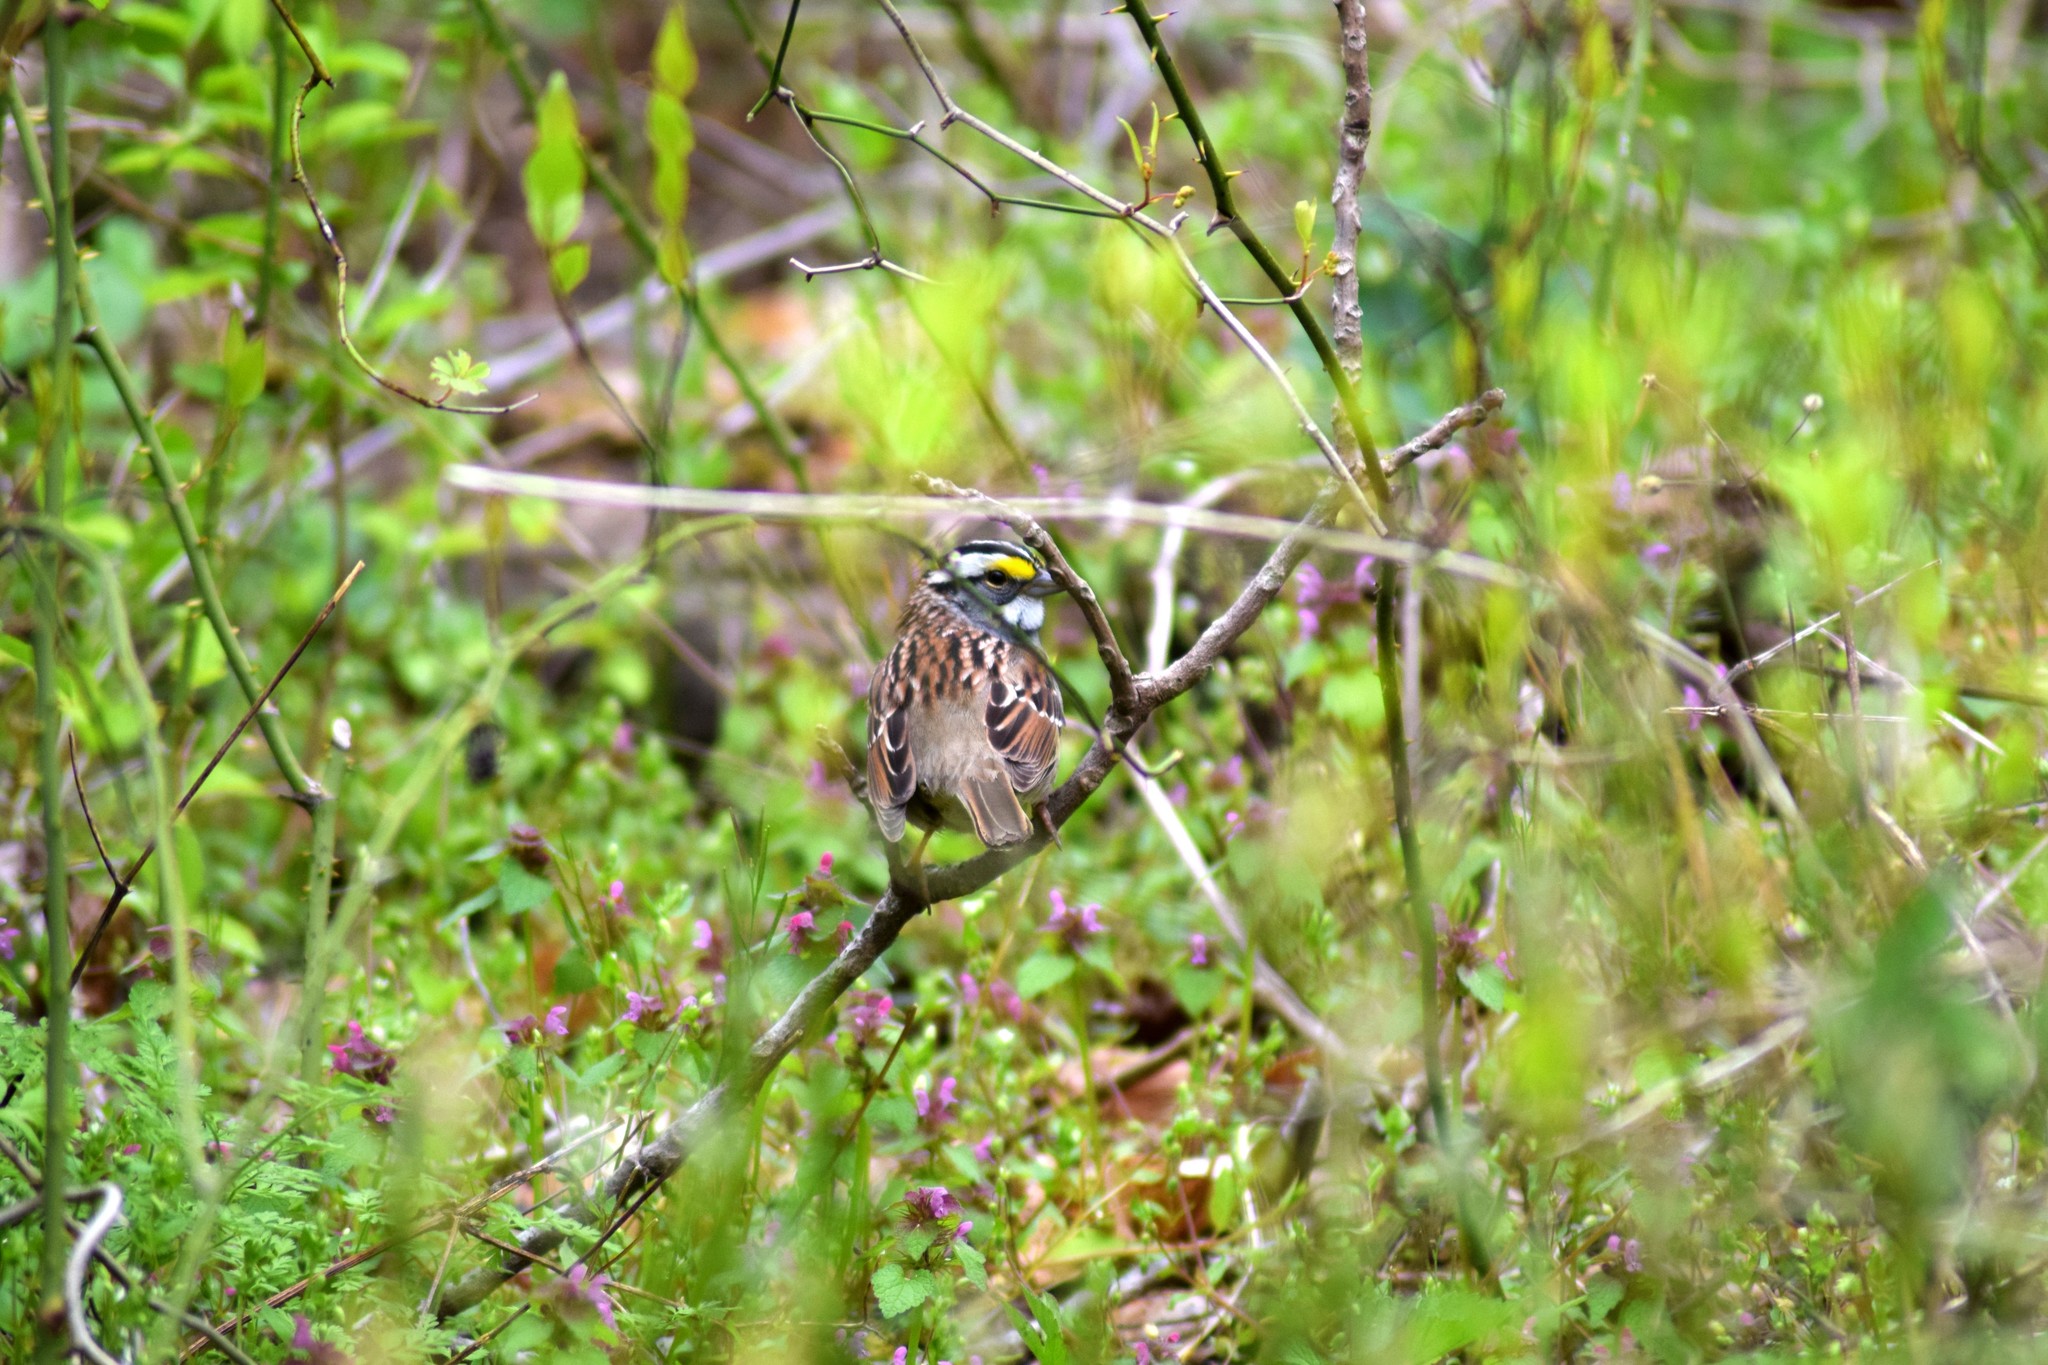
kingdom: Animalia
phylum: Chordata
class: Aves
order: Passeriformes
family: Passerellidae
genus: Zonotrichia
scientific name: Zonotrichia albicollis
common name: White-throated sparrow
